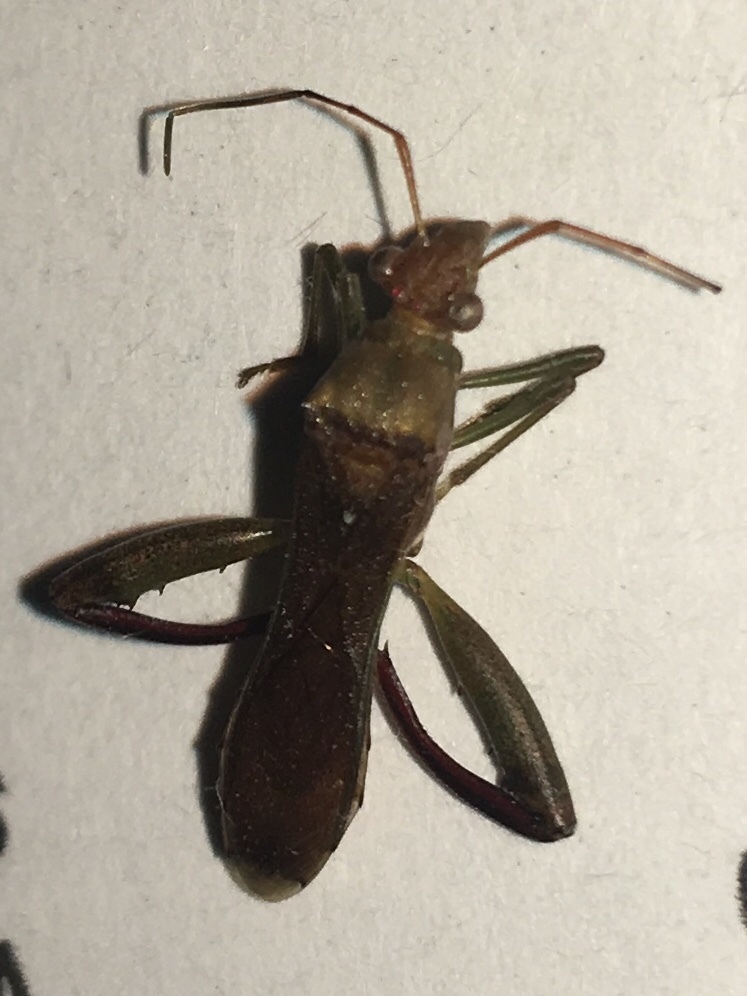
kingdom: Animalia
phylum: Arthropoda
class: Insecta
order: Hemiptera
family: Alydidae
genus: Hyalymenus
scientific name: Hyalymenus tarsatus
